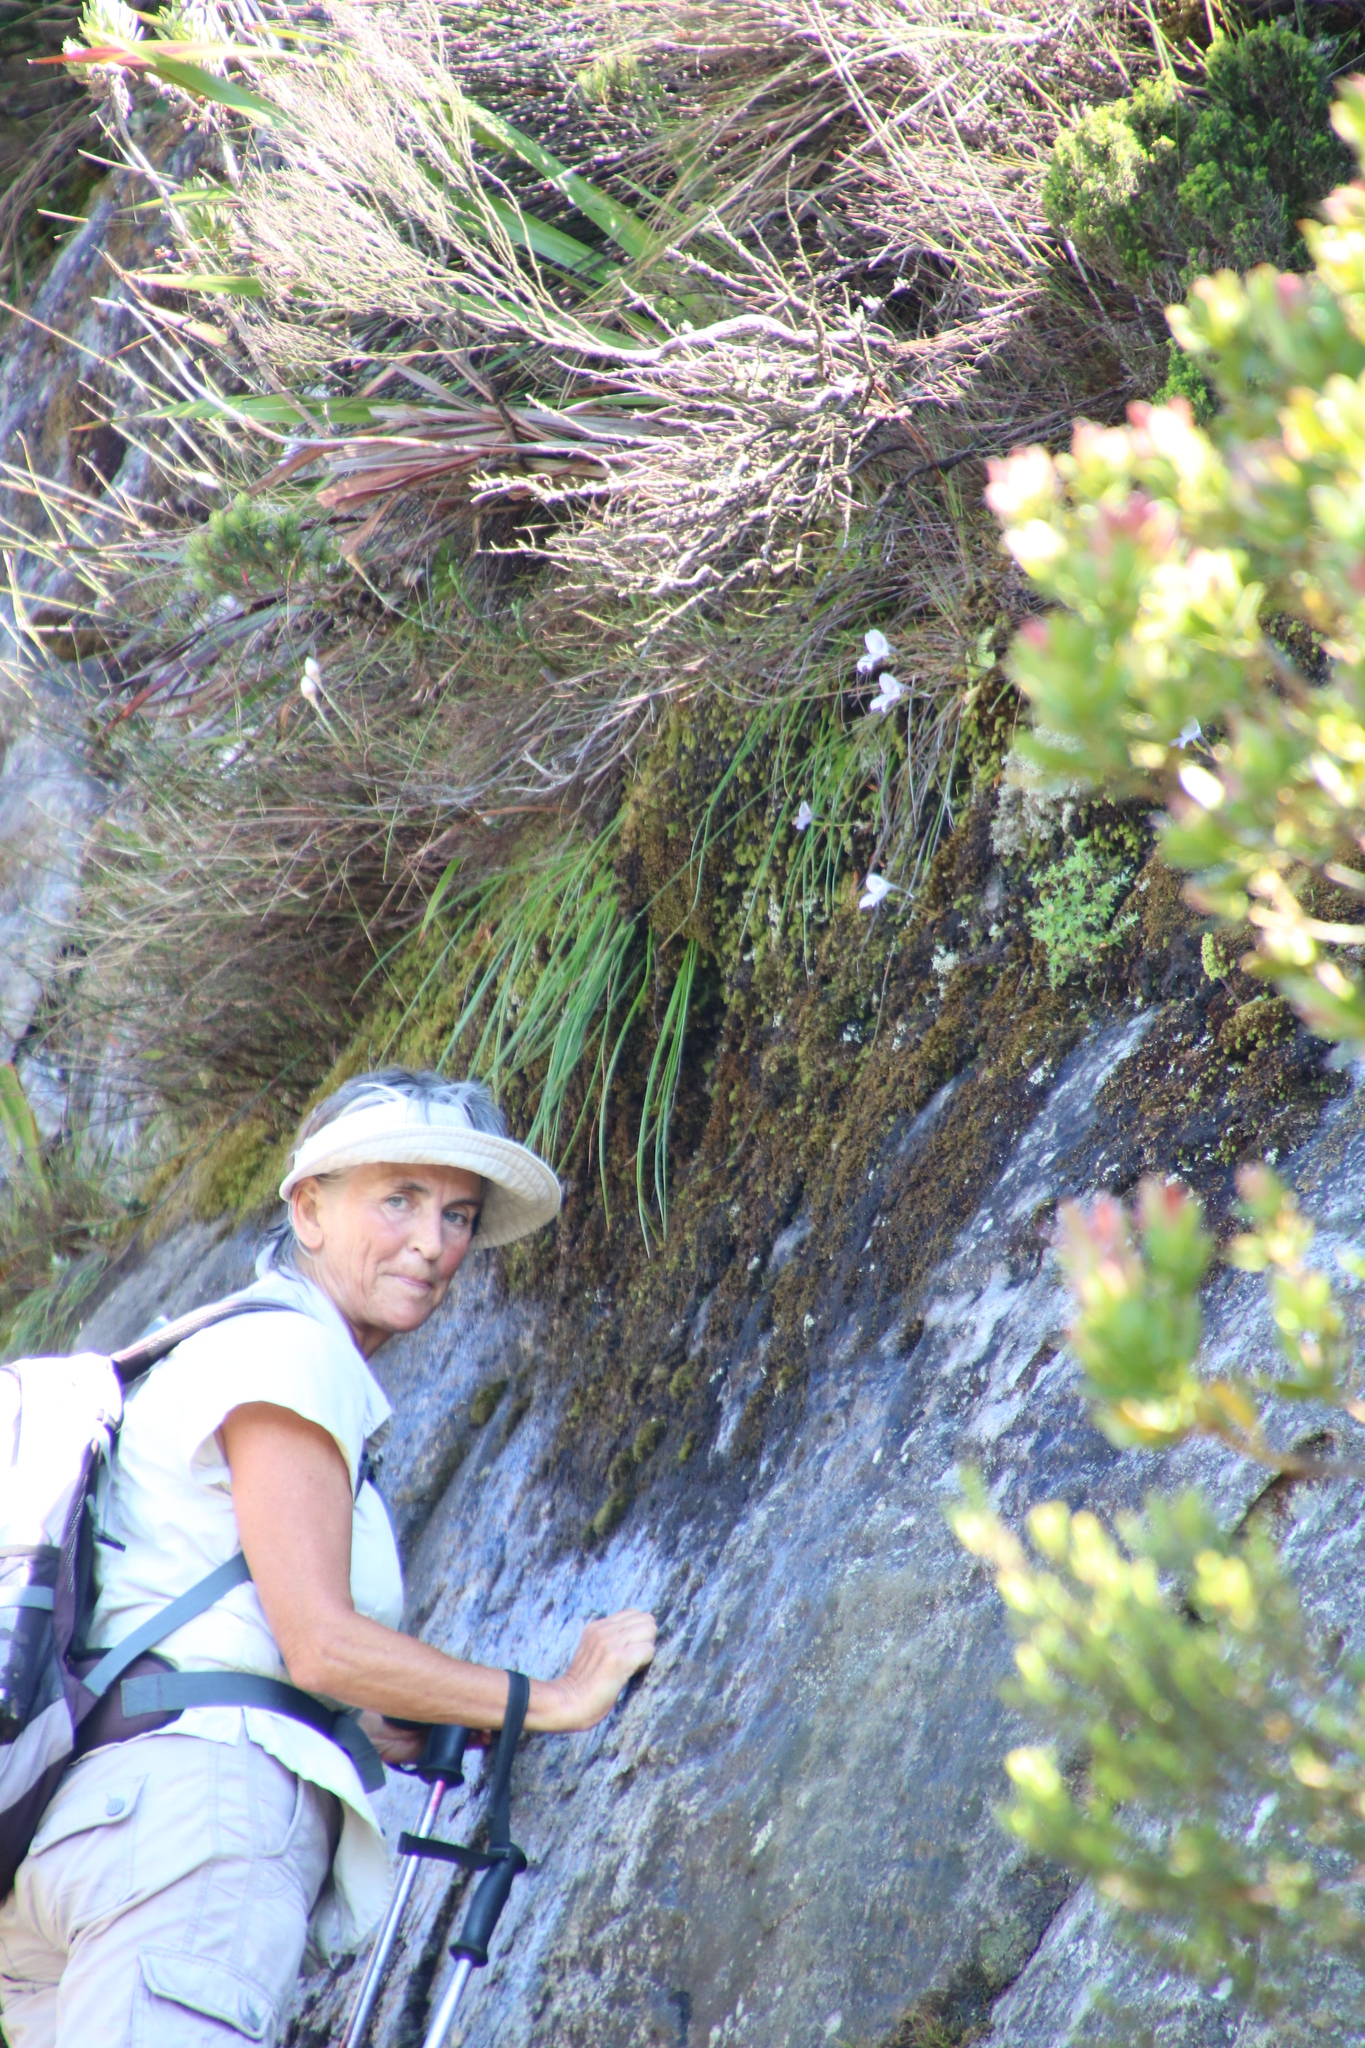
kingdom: Plantae
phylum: Tracheophyta
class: Liliopsida
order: Asparagales
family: Orchidaceae
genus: Disa
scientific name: Disa longicornu
